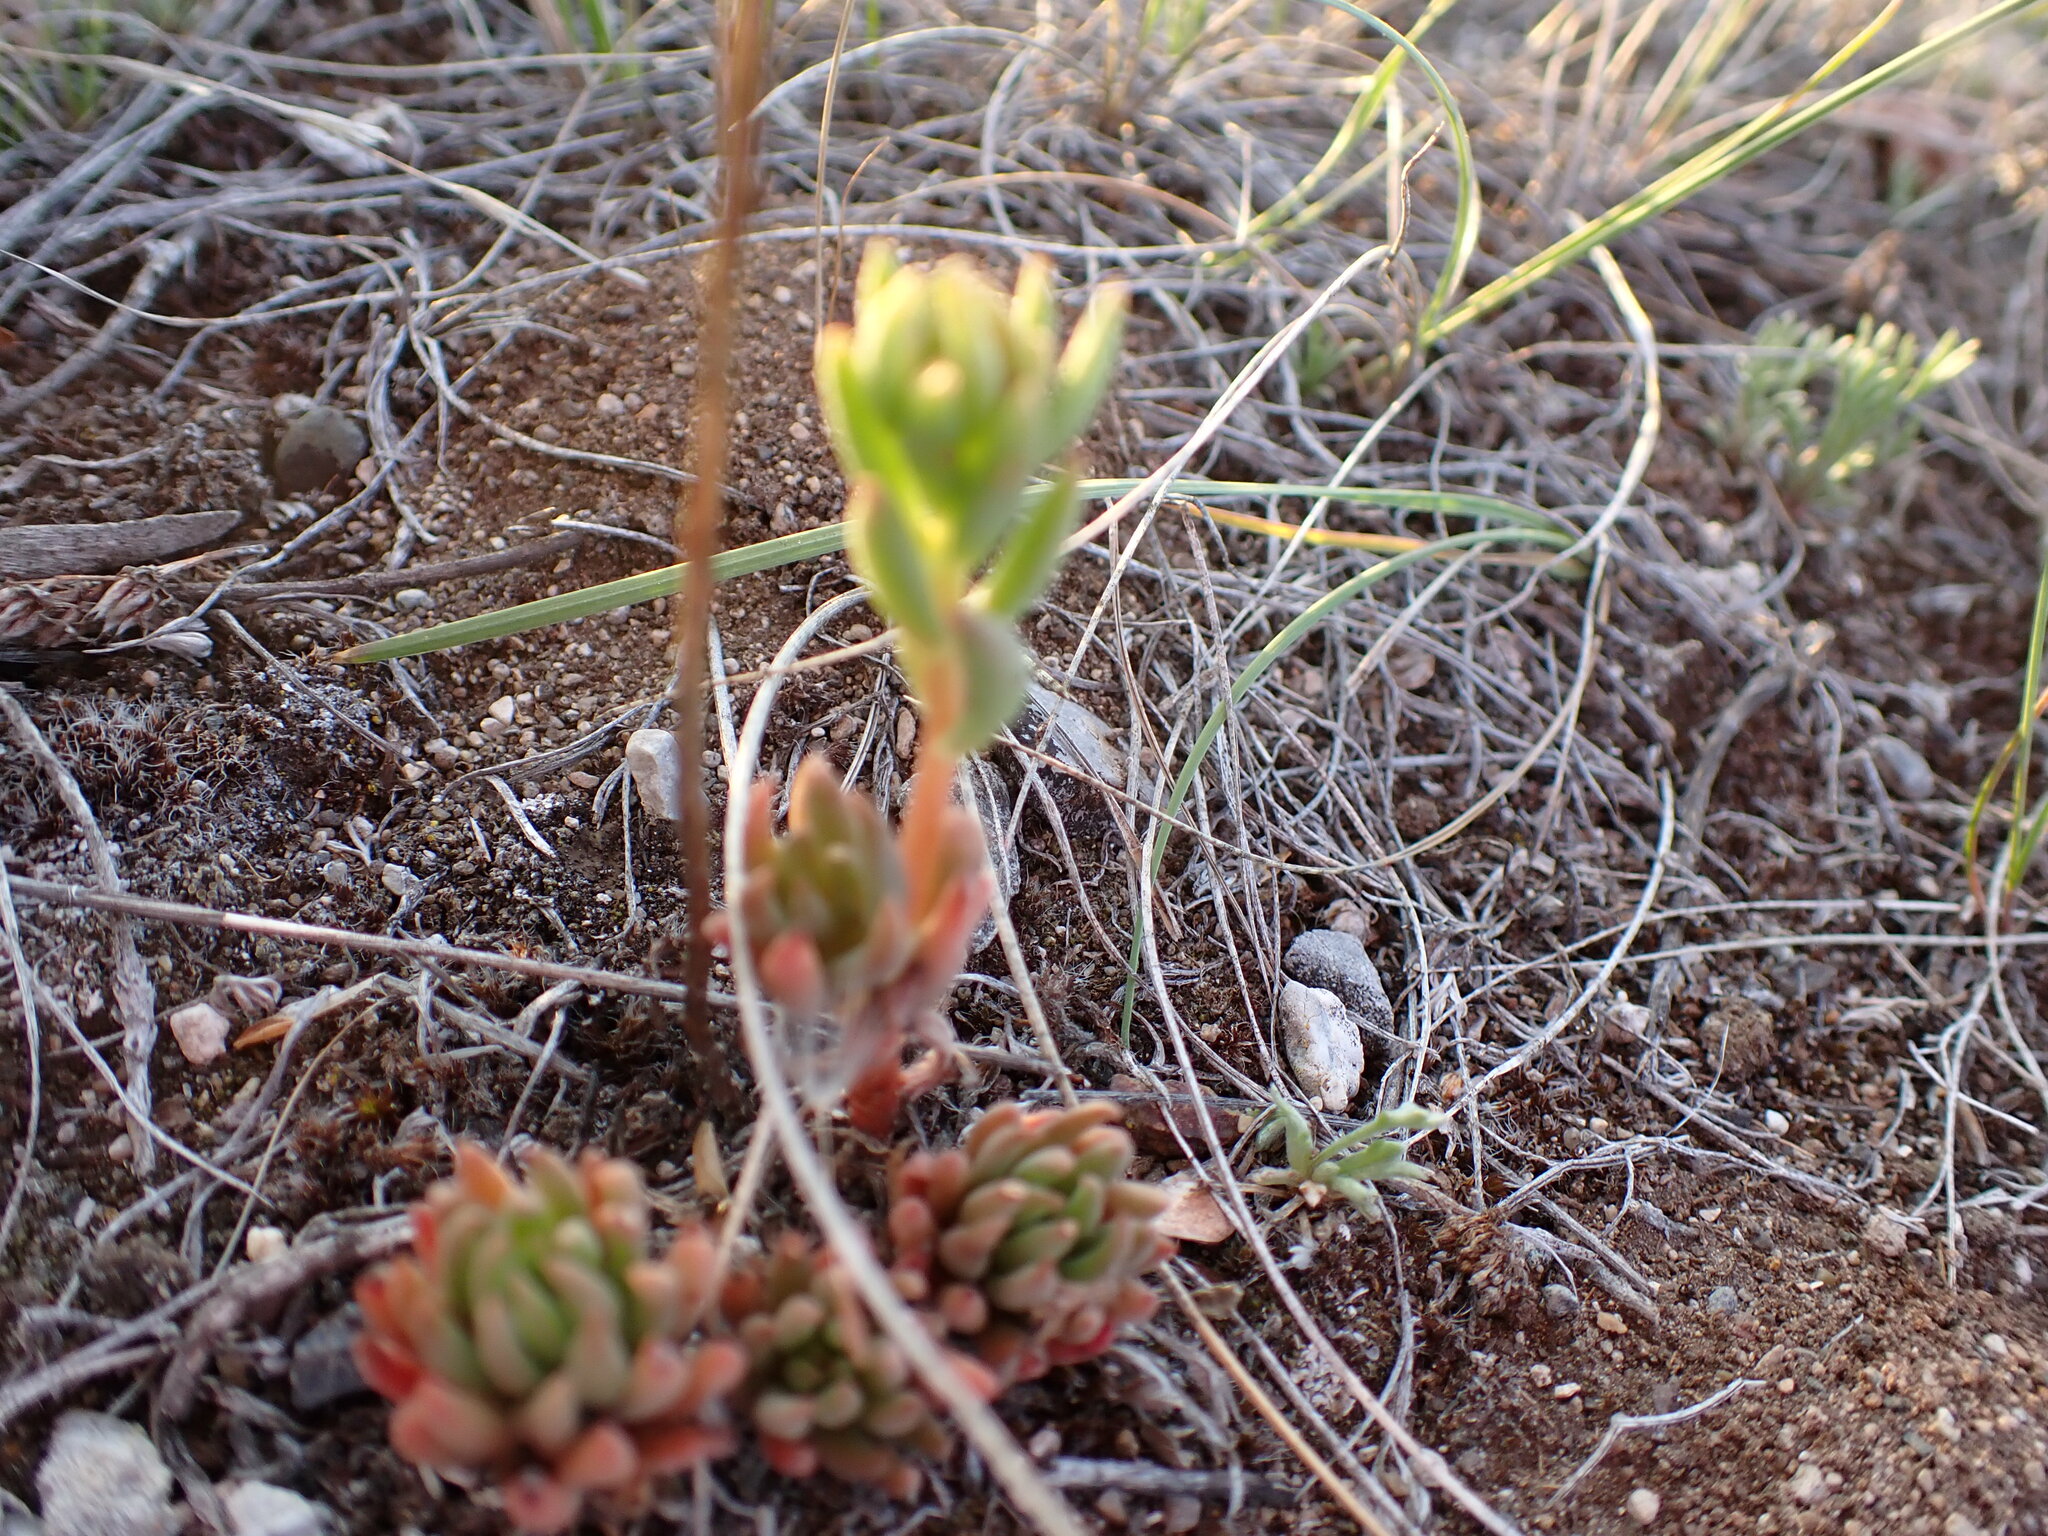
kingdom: Plantae
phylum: Tracheophyta
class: Magnoliopsida
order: Saxifragales
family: Crassulaceae
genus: Sedum
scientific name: Sedum lanceolatum
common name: Common stonecrop
